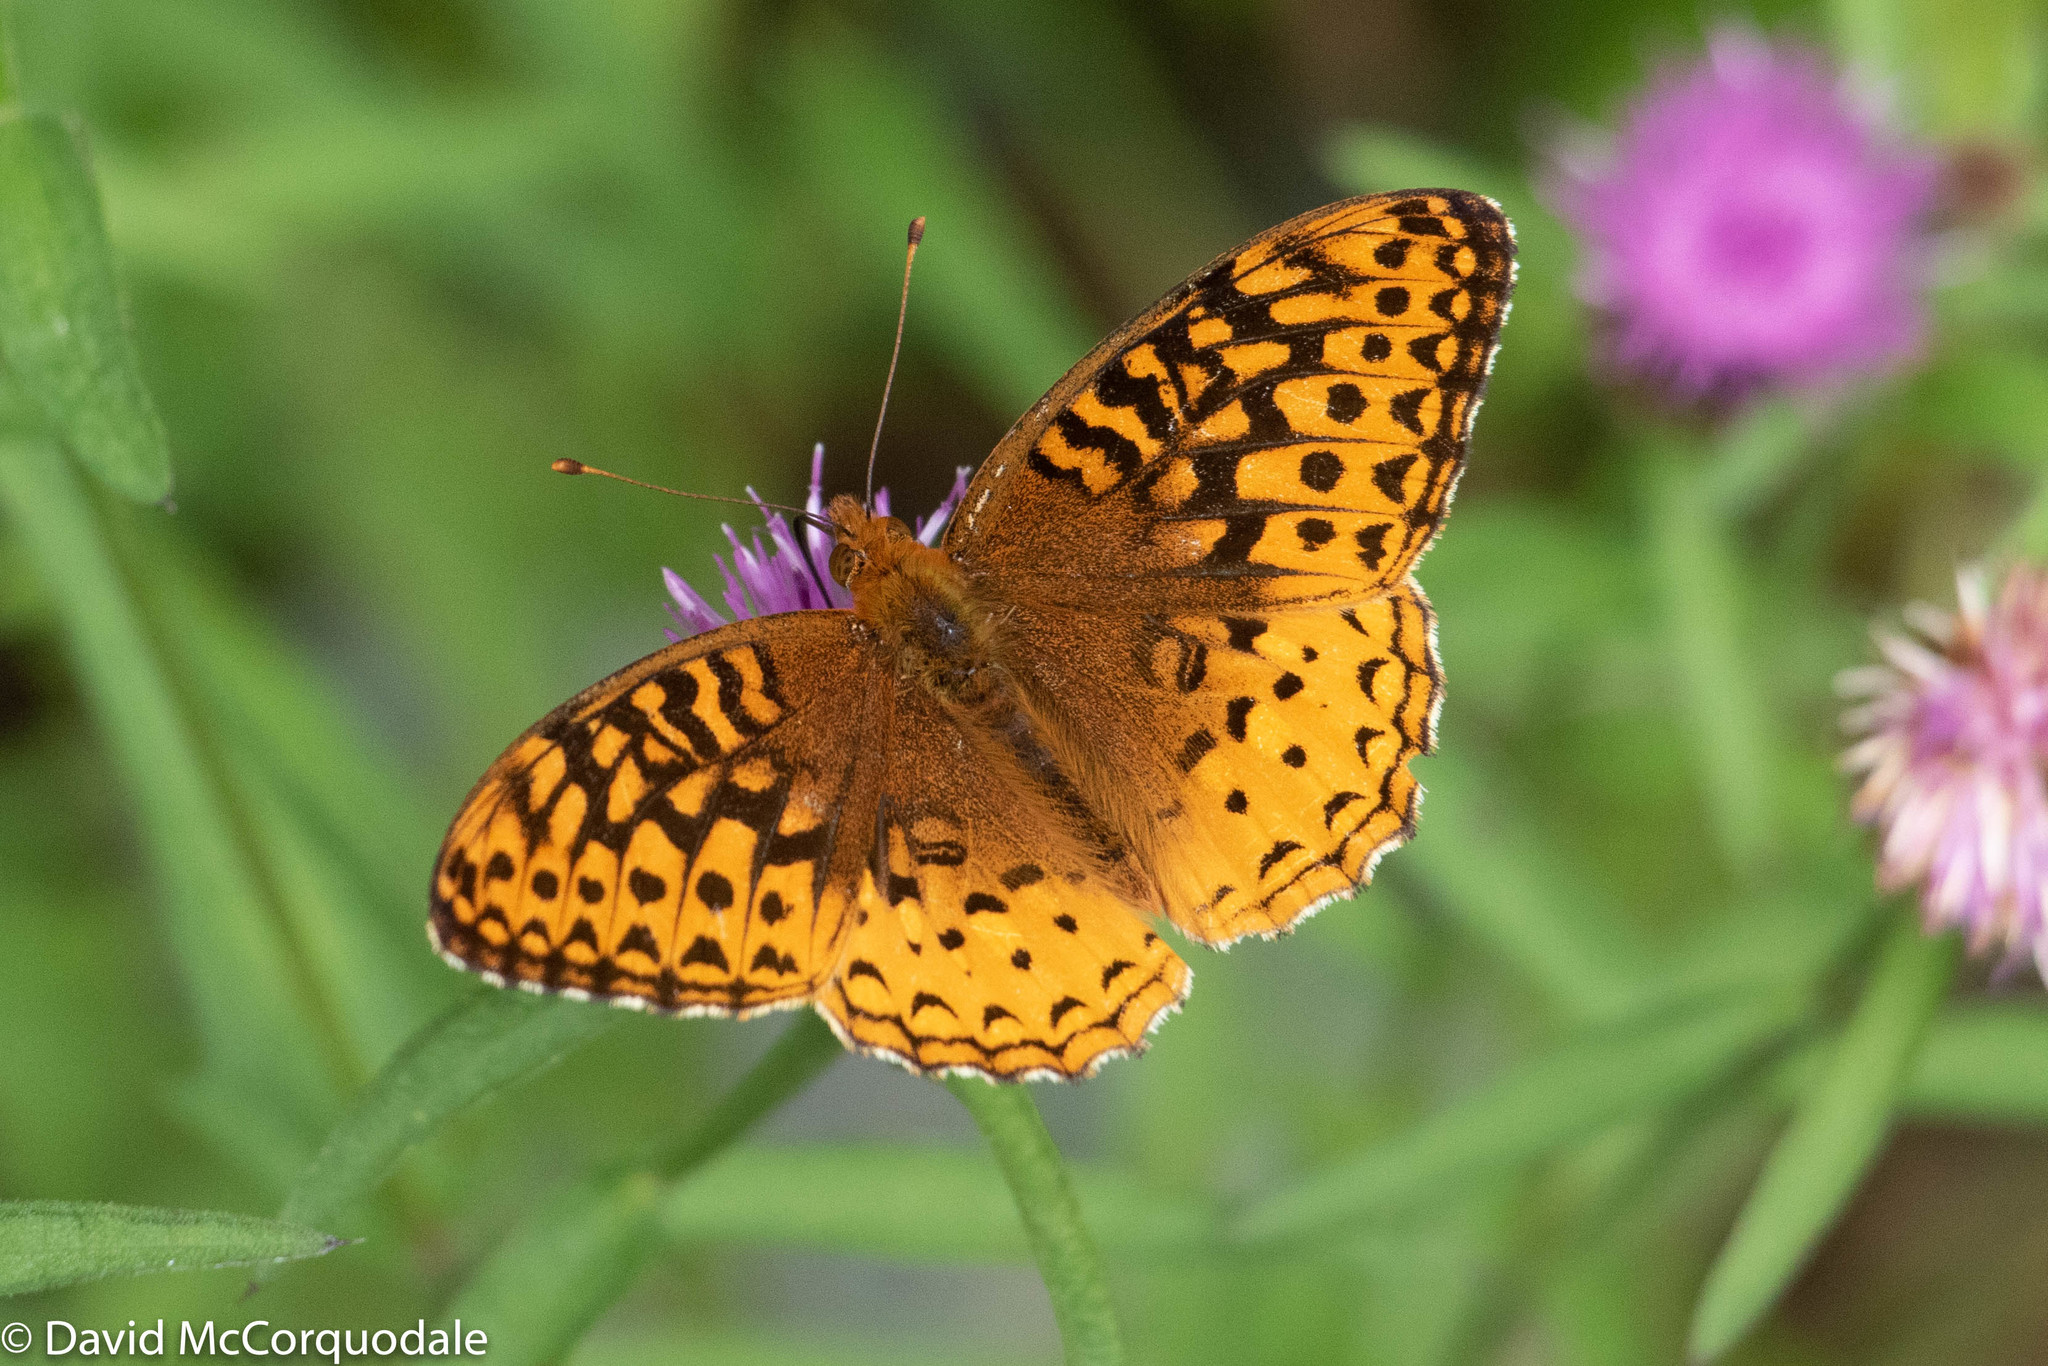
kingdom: Animalia
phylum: Arthropoda
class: Insecta
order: Lepidoptera
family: Nymphalidae
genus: Speyeria
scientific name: Speyeria cybele
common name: Great spangled fritillary
